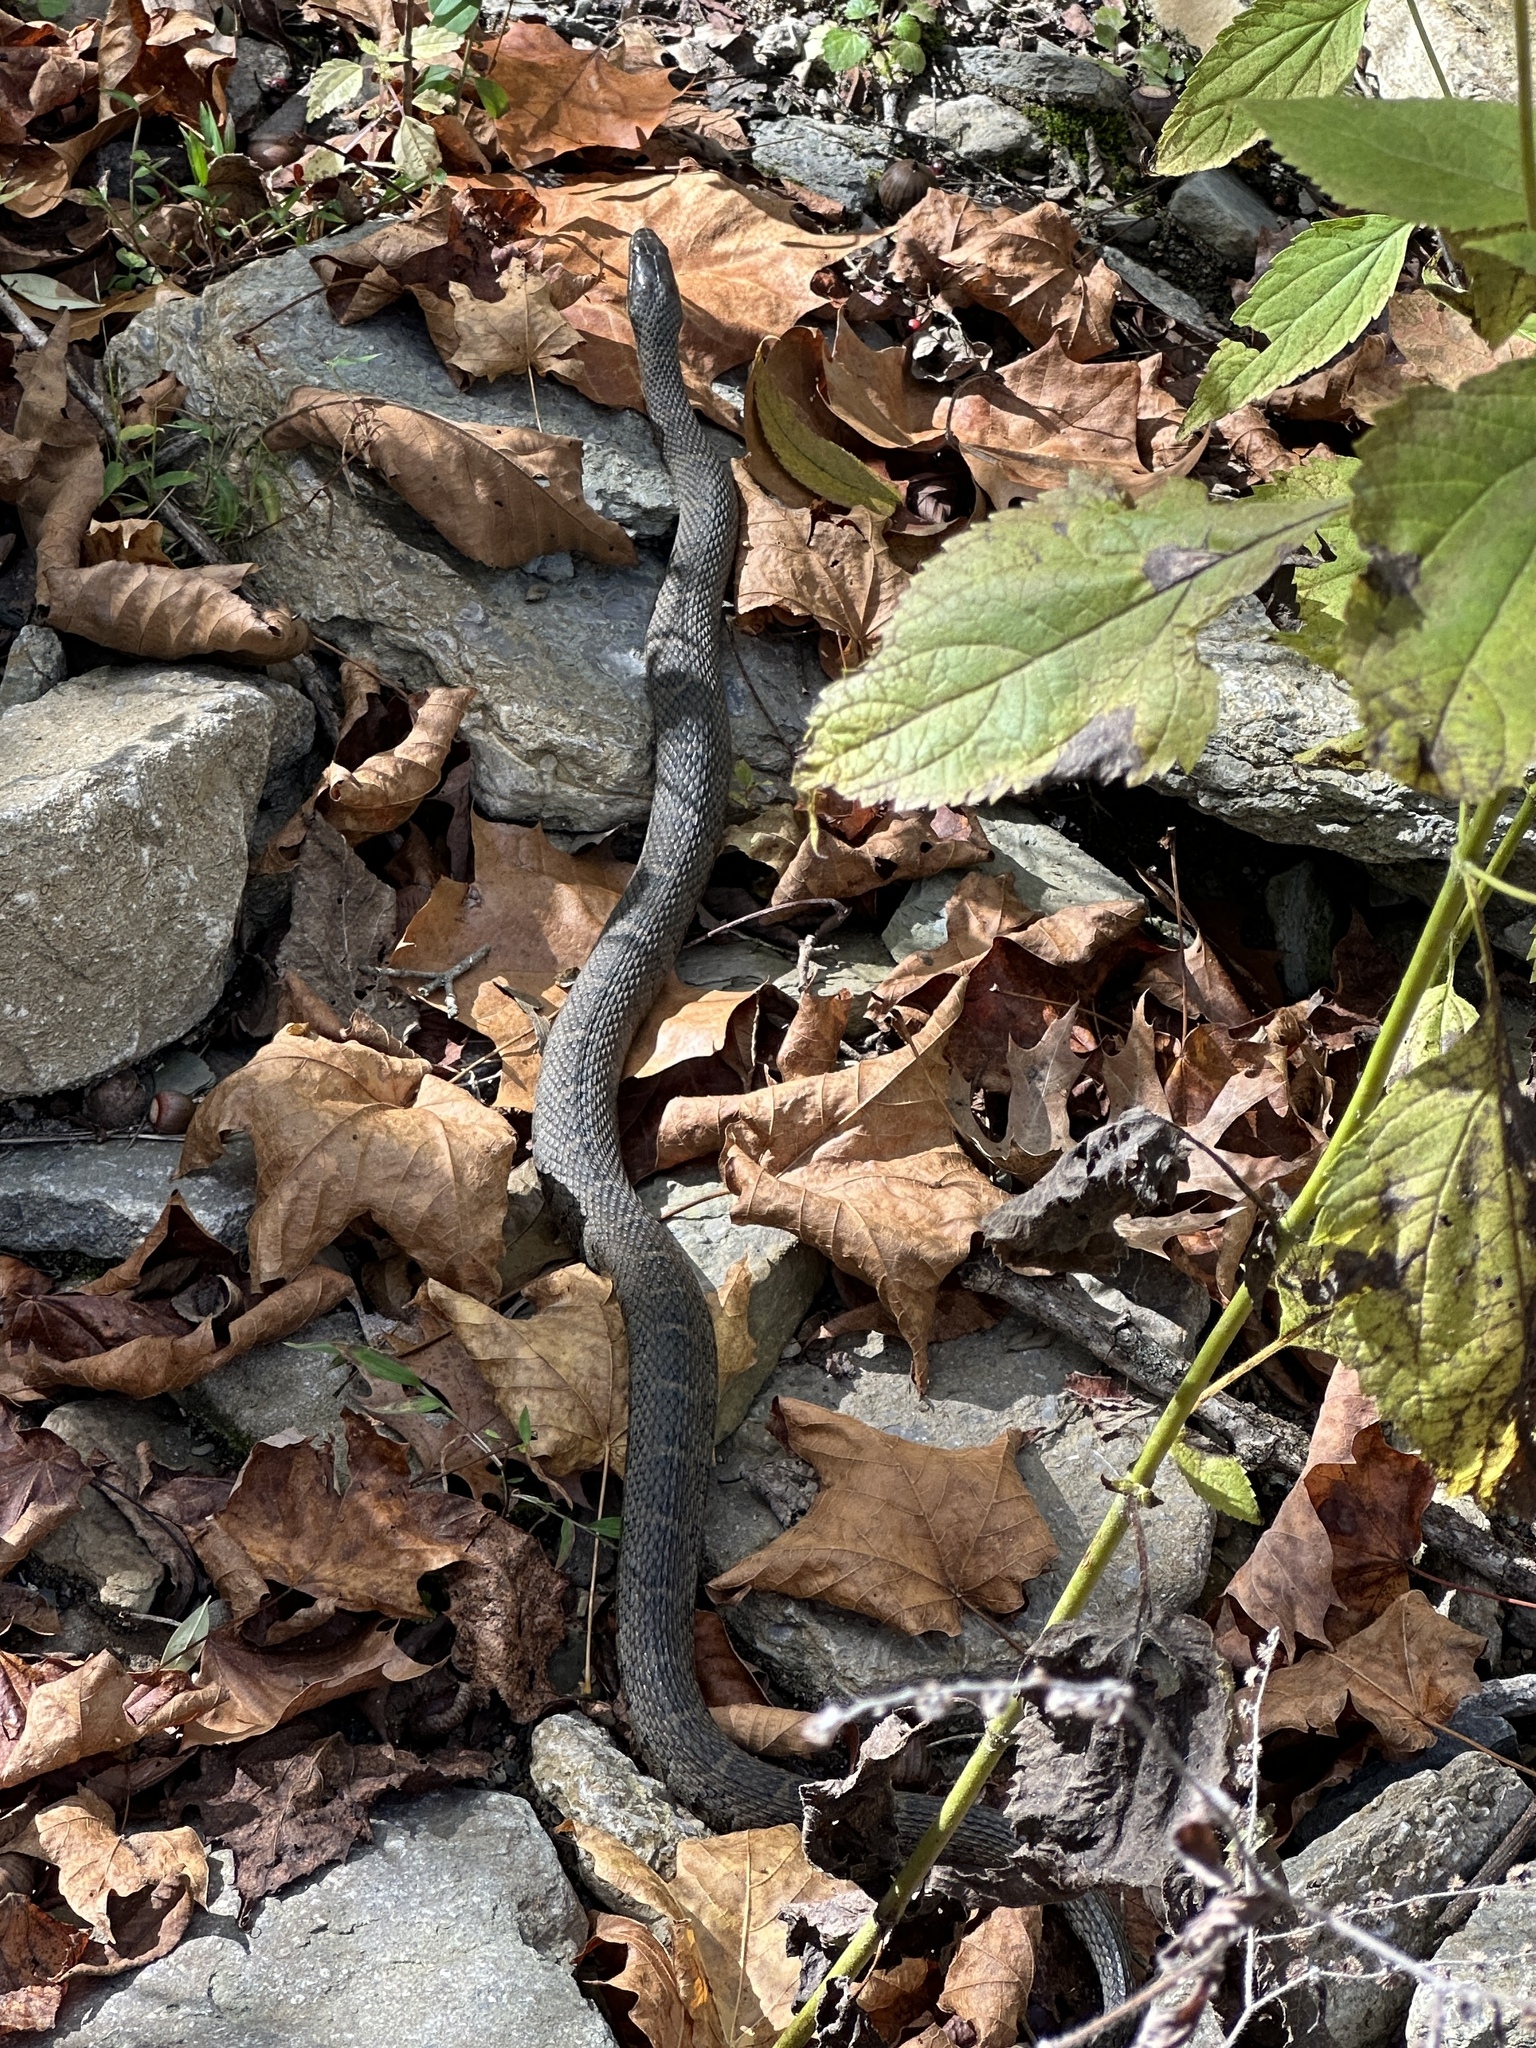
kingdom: Animalia
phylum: Chordata
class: Squamata
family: Colubridae
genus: Nerodia
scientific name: Nerodia sipedon
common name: Northern water snake
